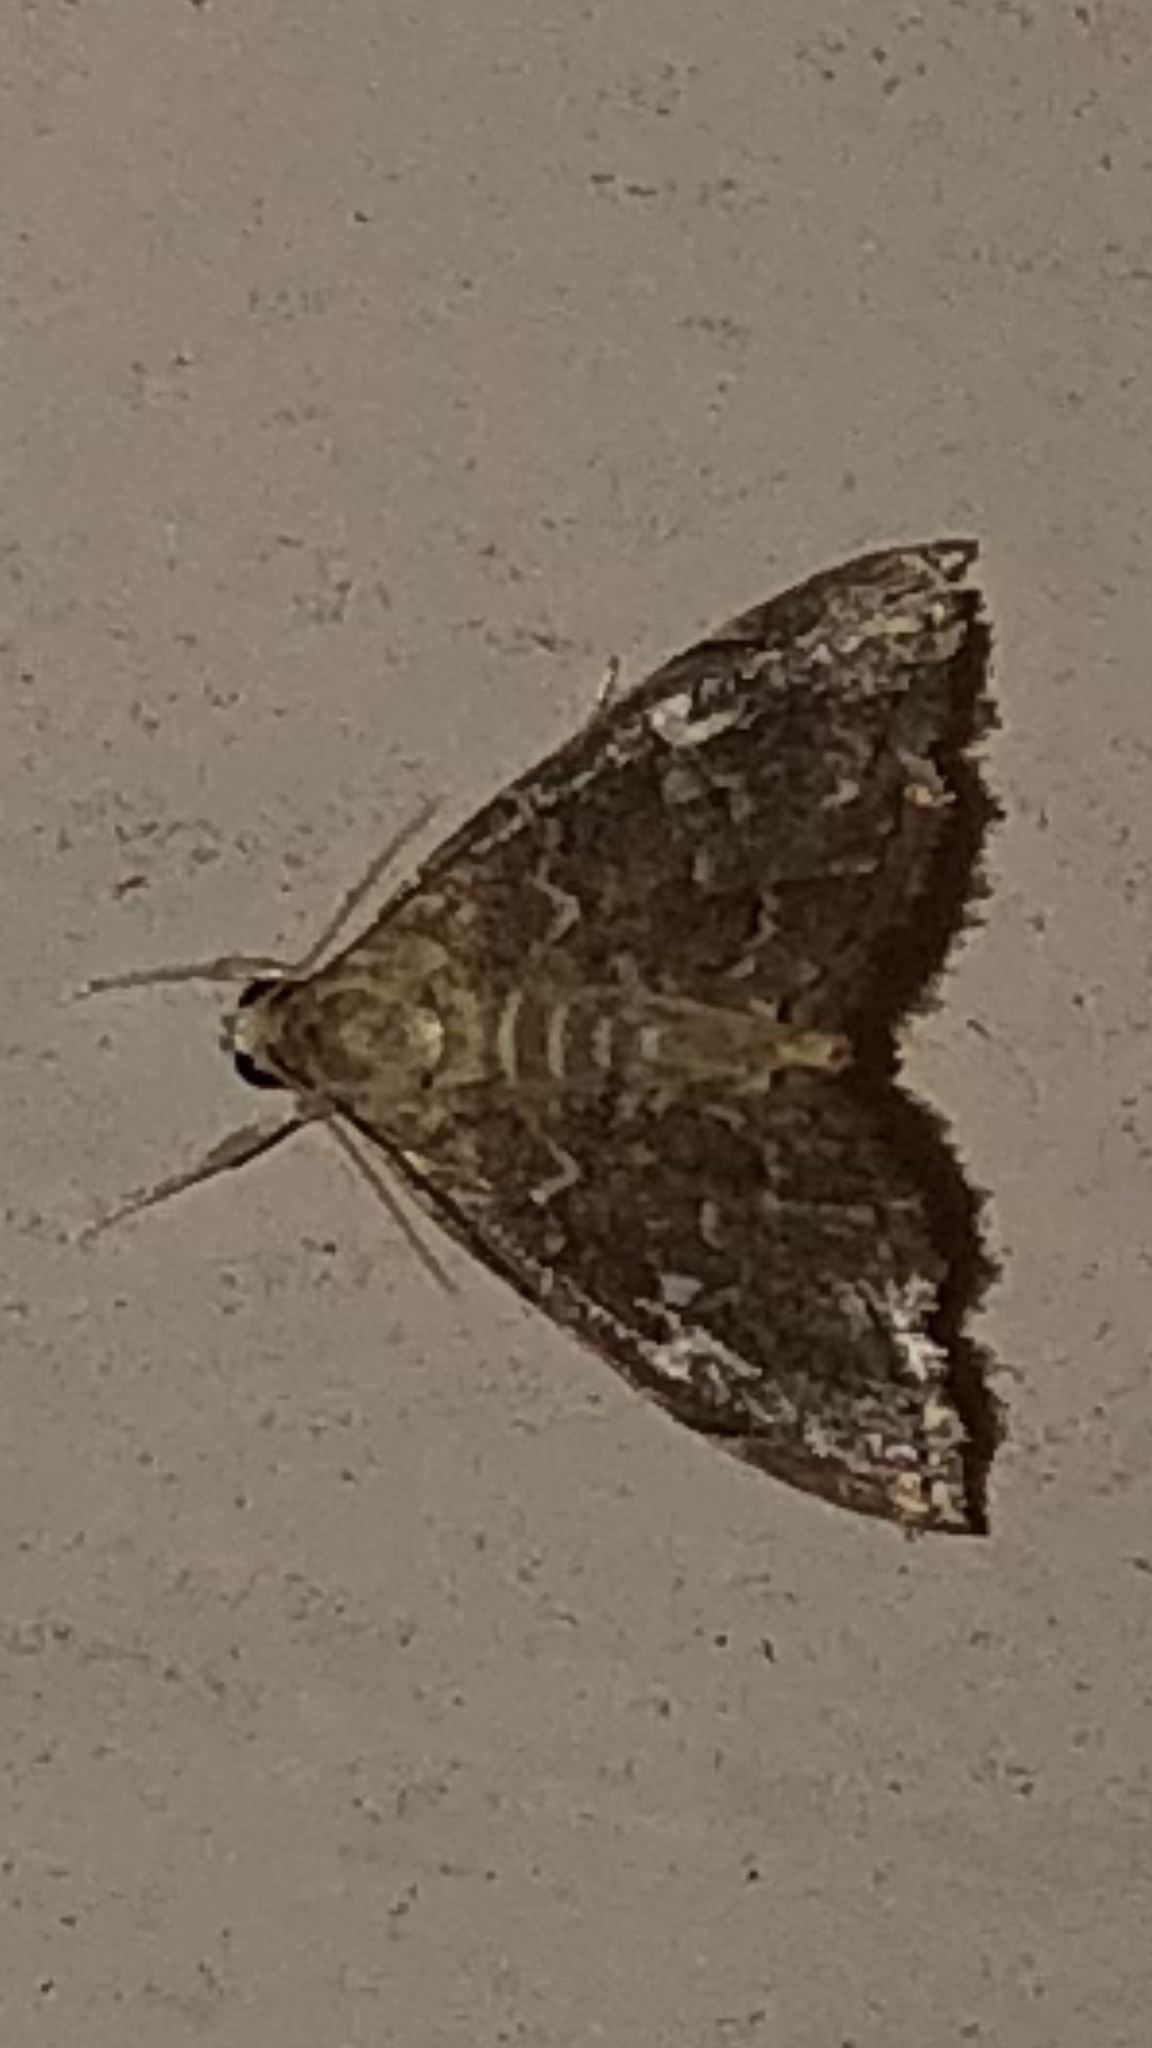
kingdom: Animalia
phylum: Arthropoda
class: Insecta
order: Lepidoptera
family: Crambidae
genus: Nephrogramma
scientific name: Nephrogramma reniculalis
